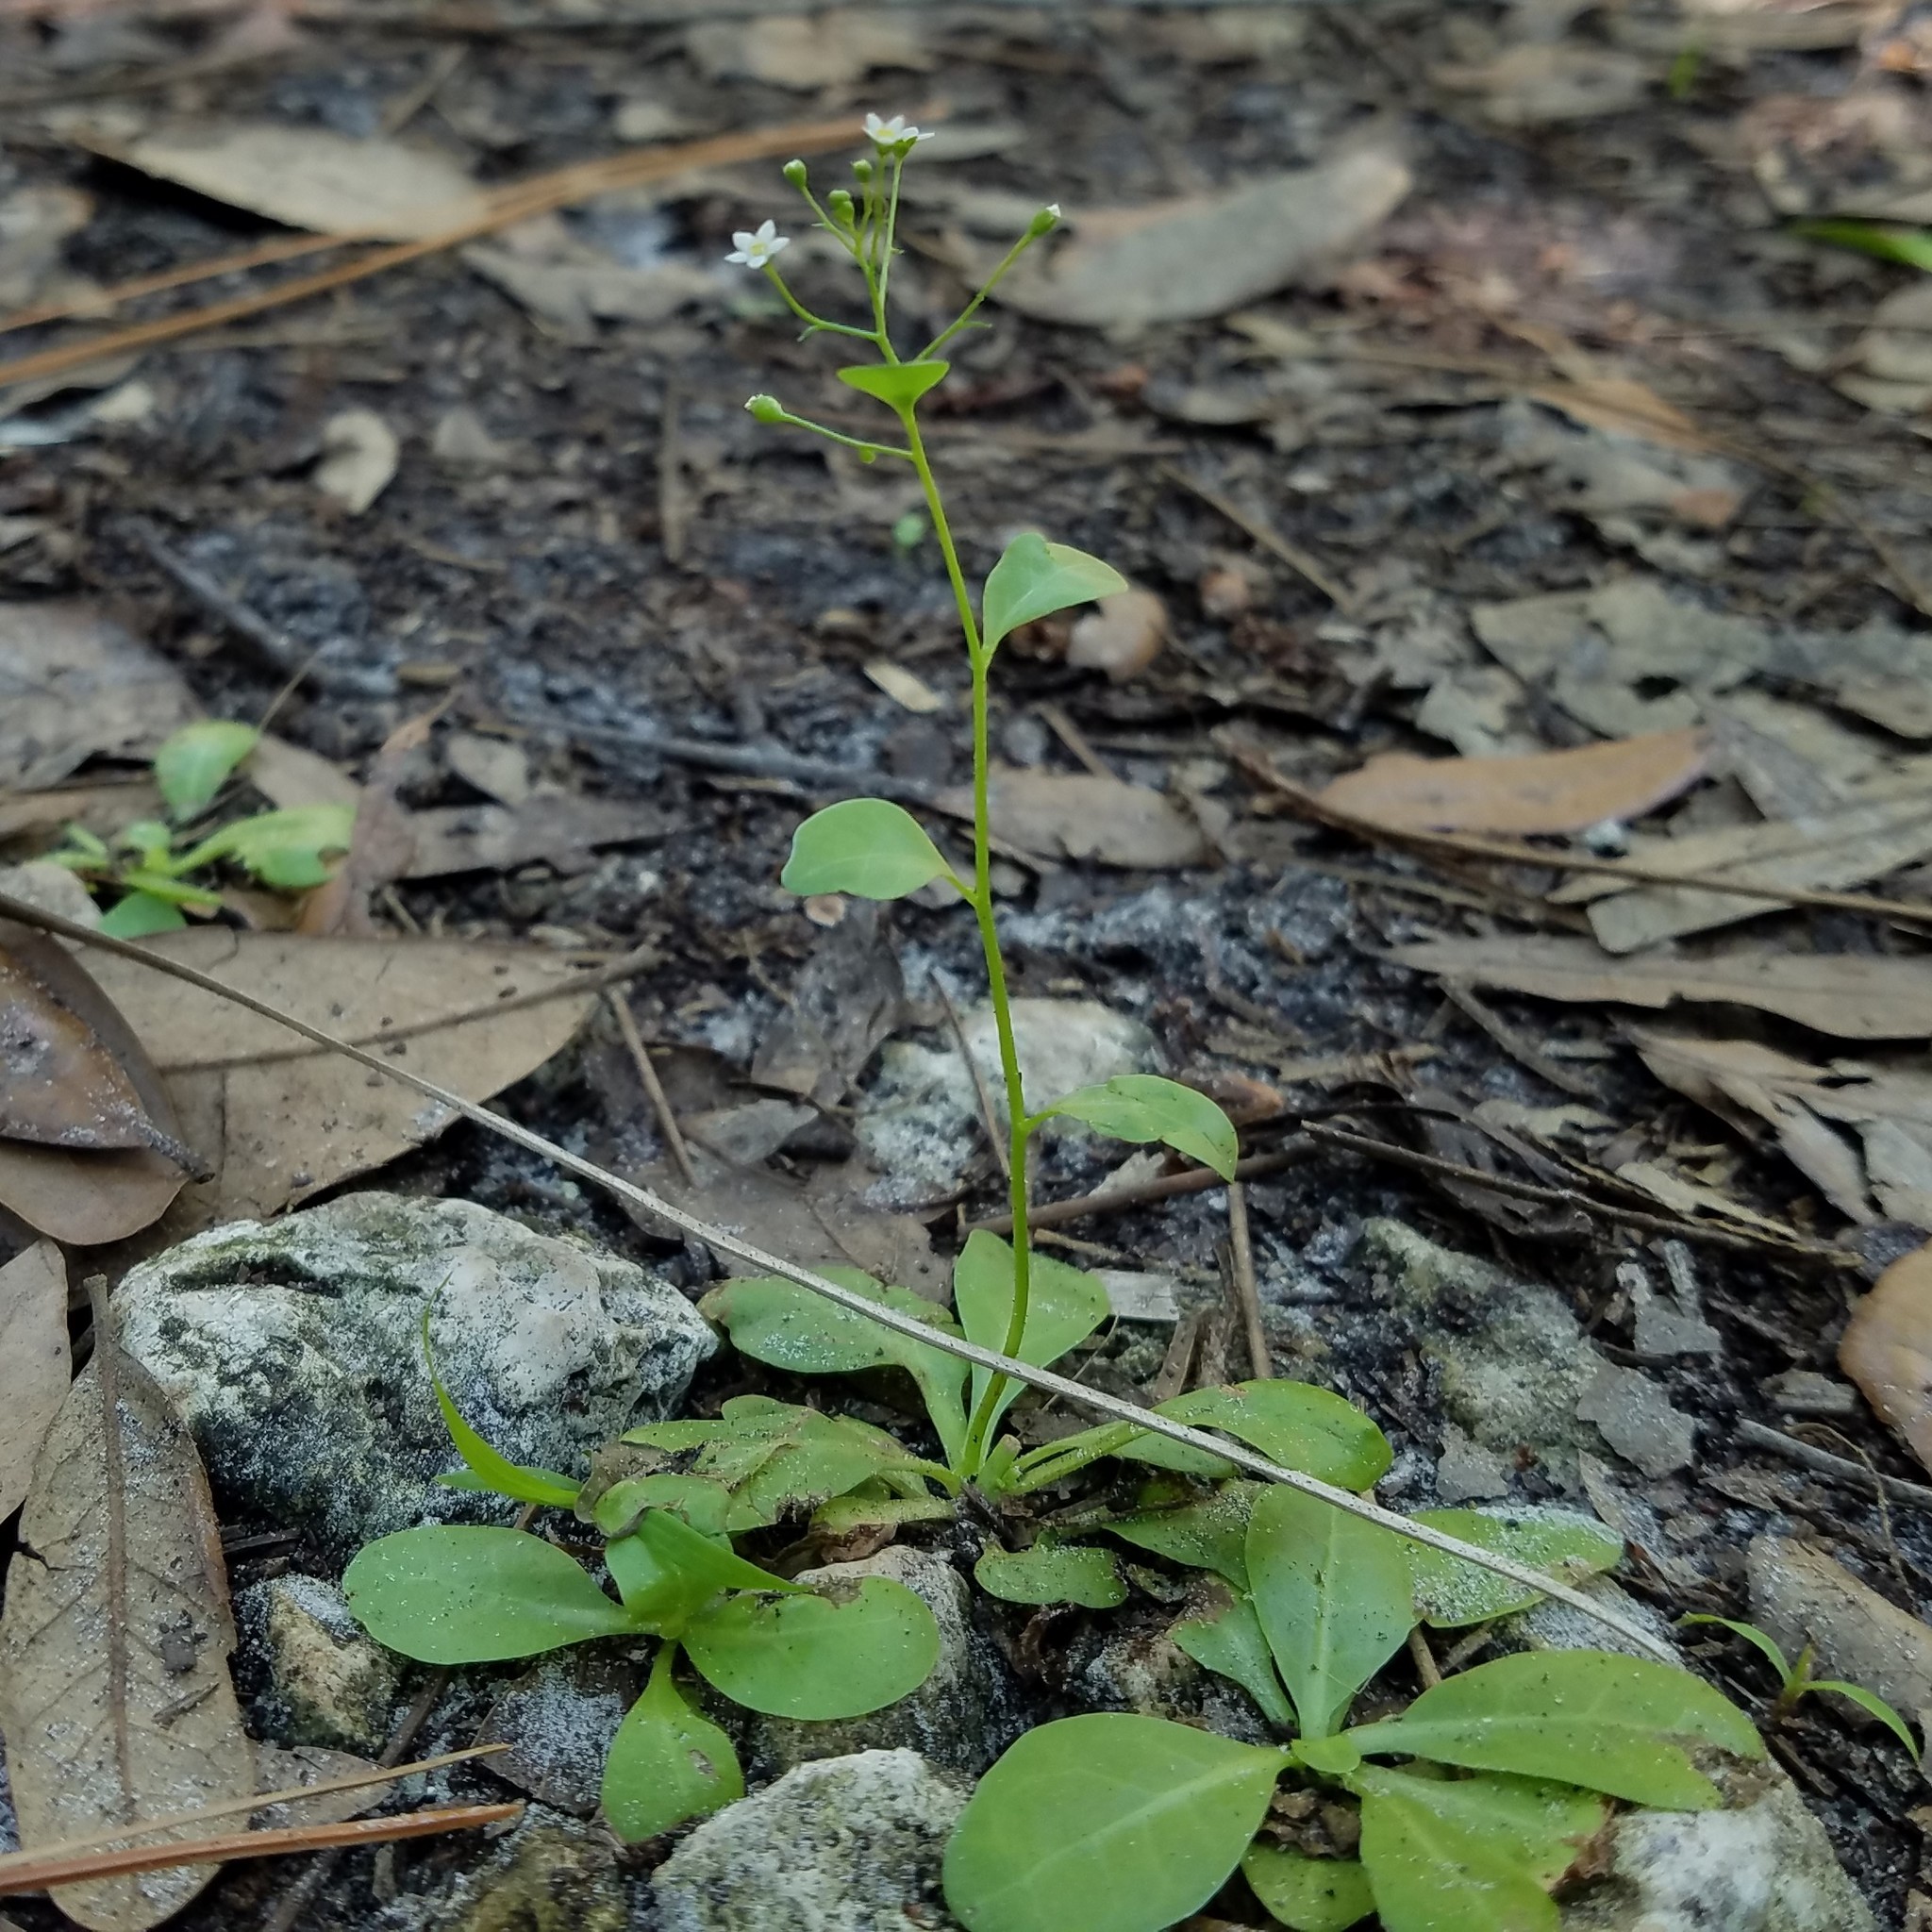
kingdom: Plantae
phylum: Tracheophyta
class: Magnoliopsida
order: Ericales
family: Primulaceae
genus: Samolus
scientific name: Samolus parviflorus
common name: False water pimpernel
